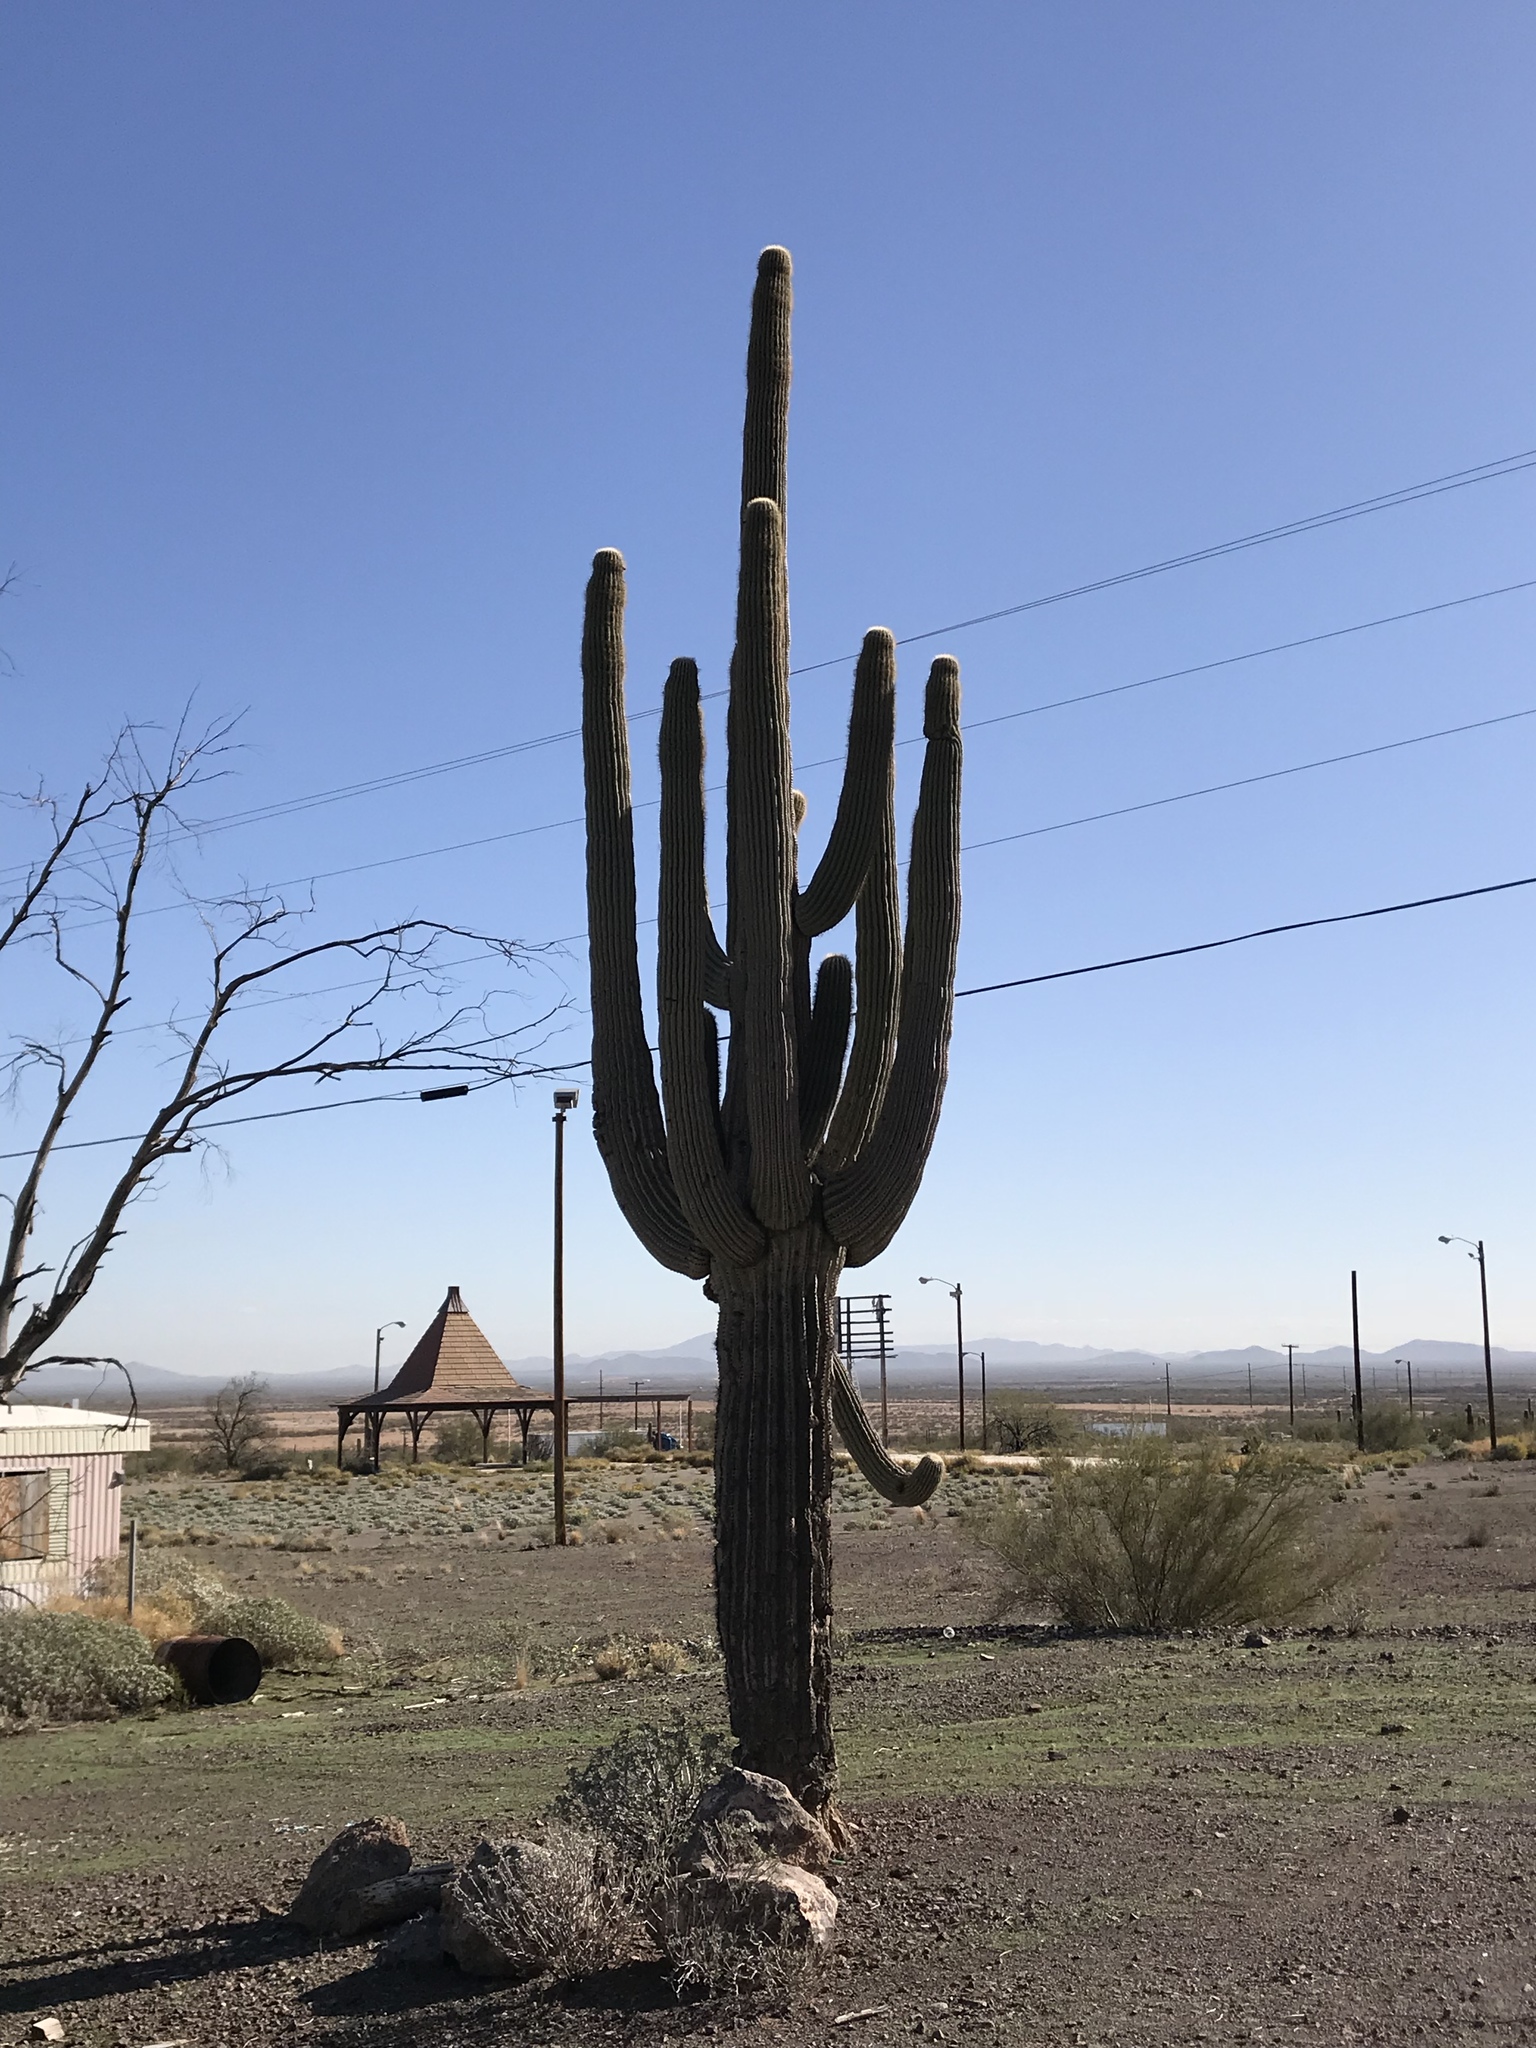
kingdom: Plantae
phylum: Tracheophyta
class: Magnoliopsida
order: Caryophyllales
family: Cactaceae
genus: Carnegiea
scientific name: Carnegiea gigantea
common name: Saguaro
